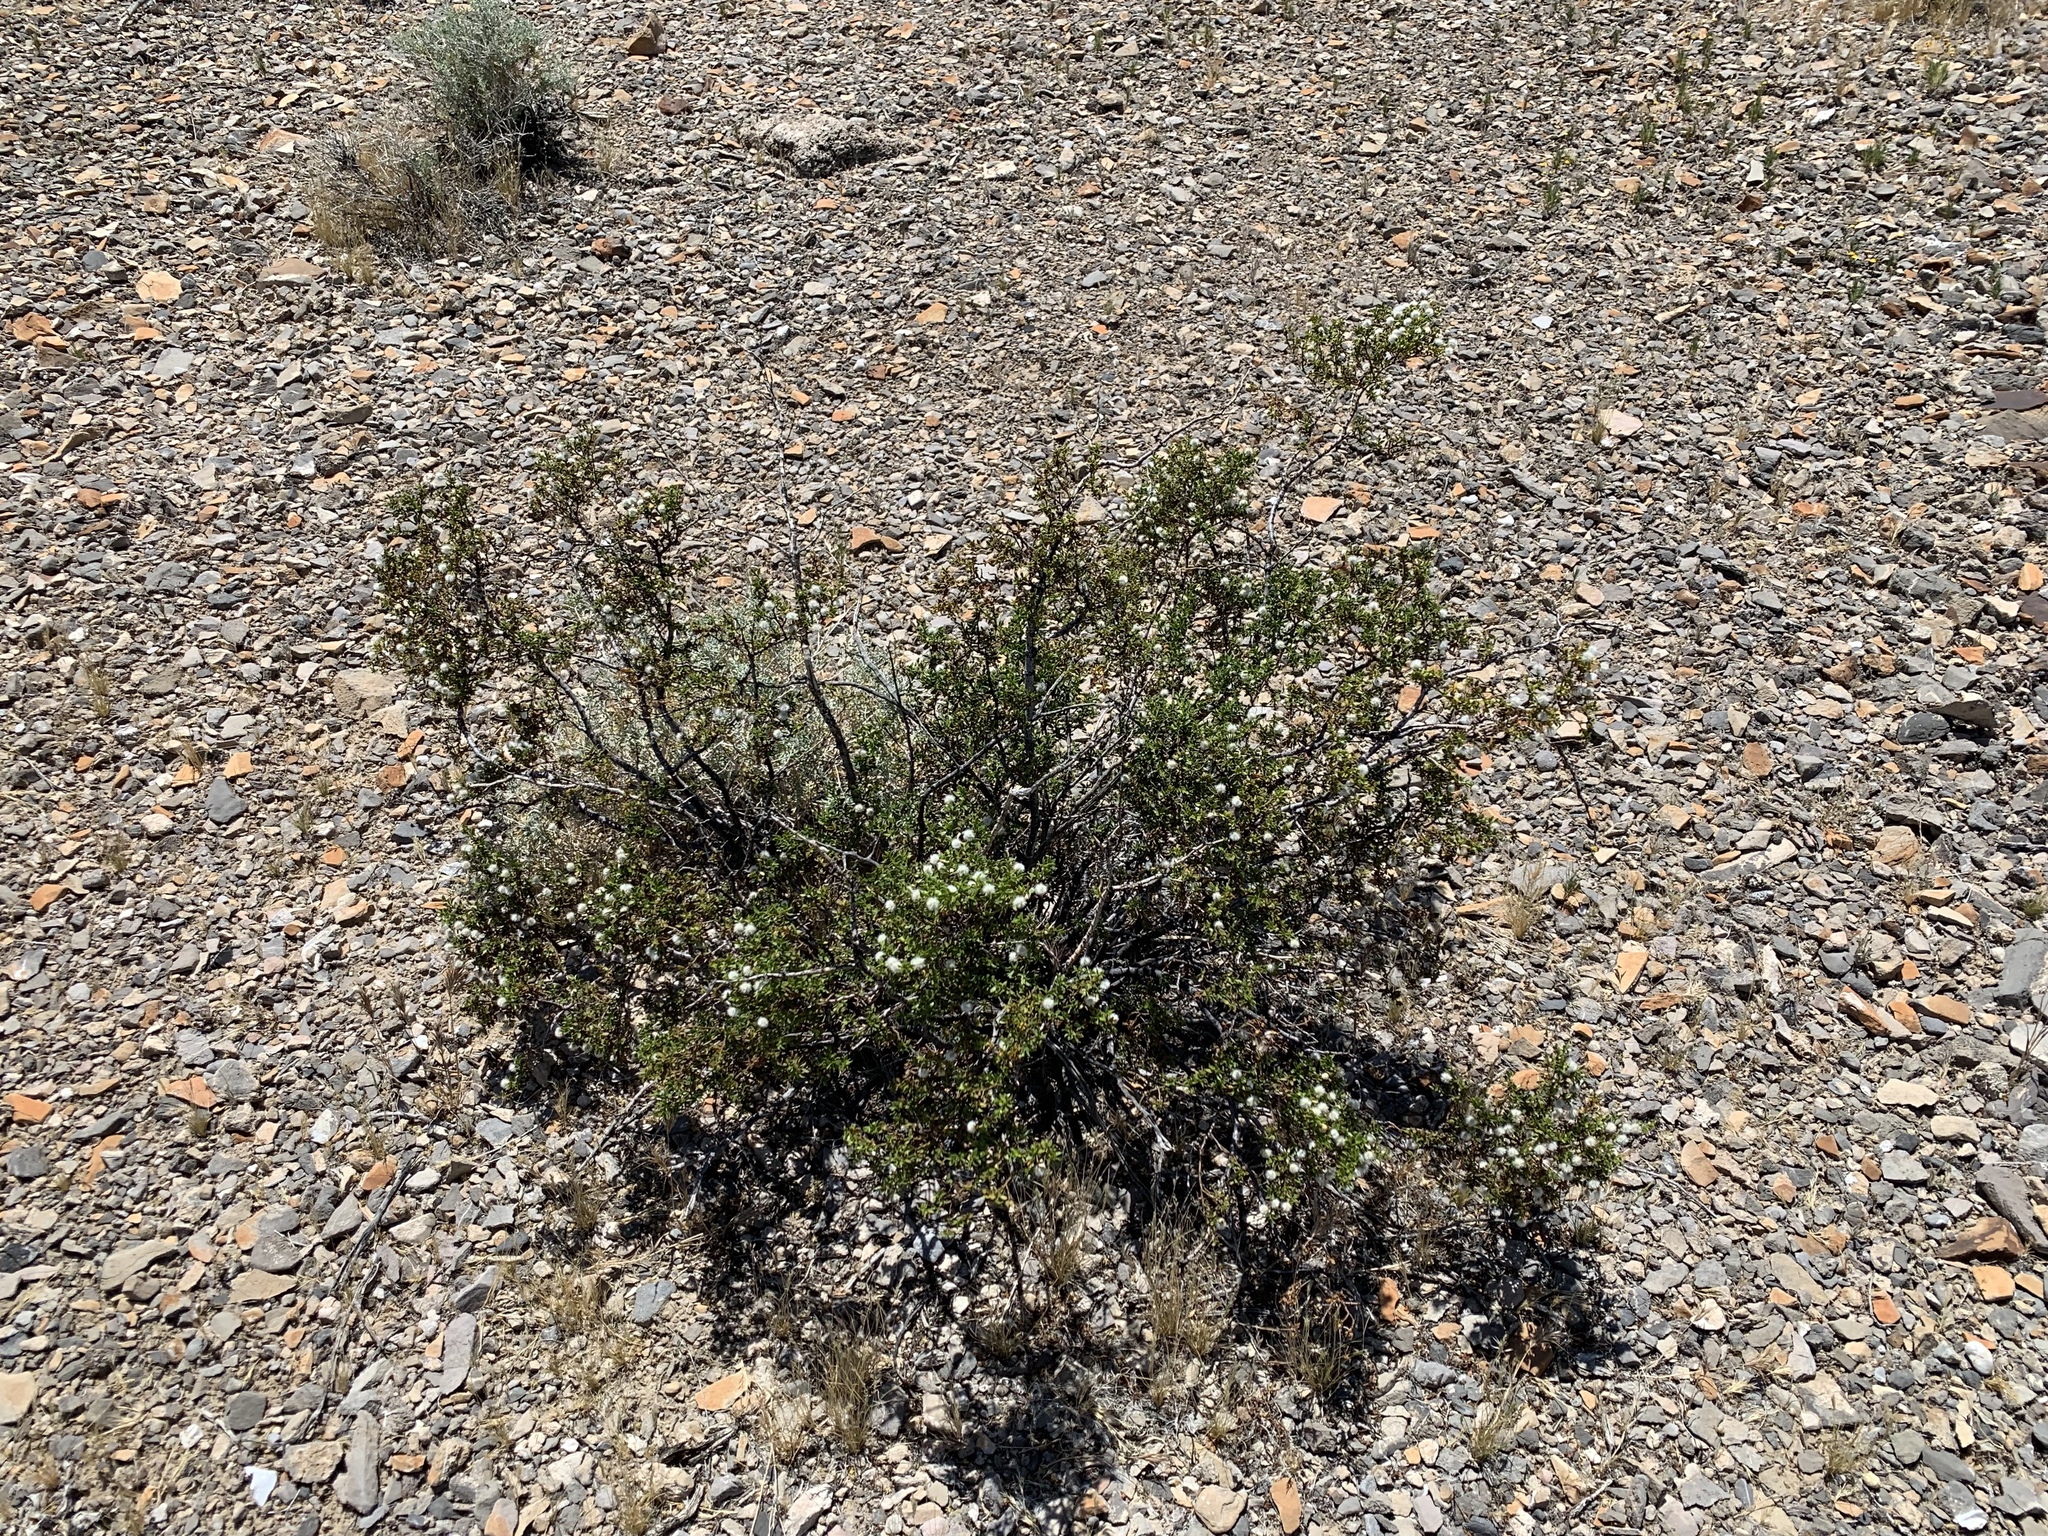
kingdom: Plantae
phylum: Tracheophyta
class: Magnoliopsida
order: Zygophyllales
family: Zygophyllaceae
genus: Larrea
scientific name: Larrea tridentata
